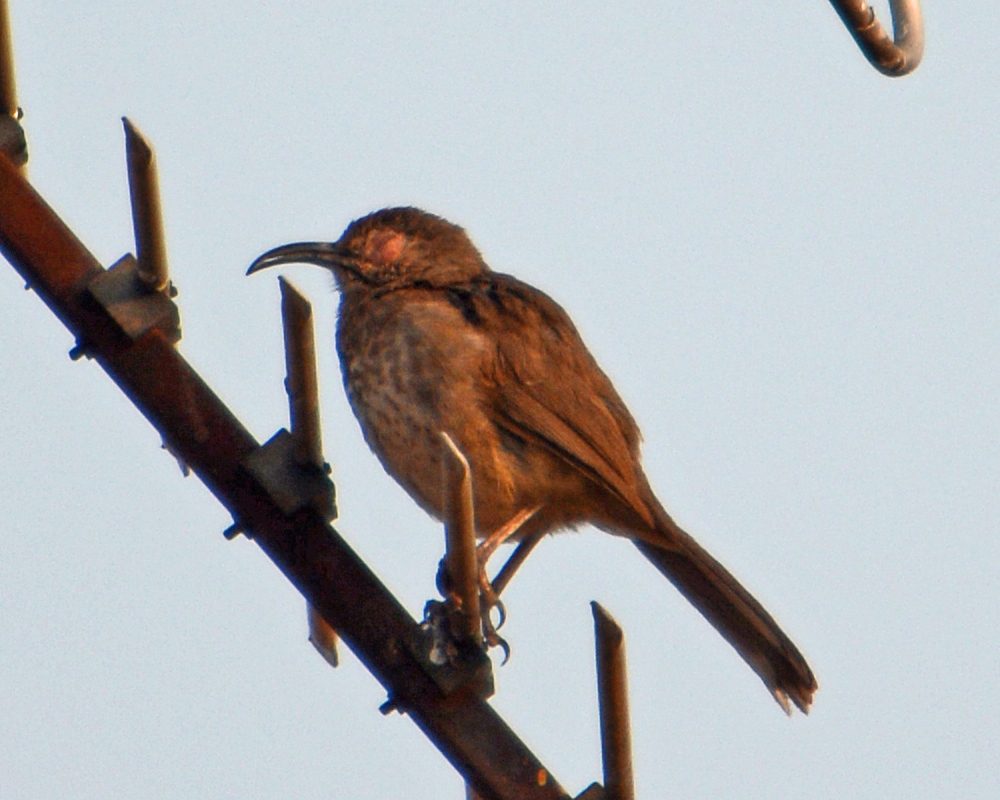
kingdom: Animalia
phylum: Chordata
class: Aves
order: Passeriformes
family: Mimidae
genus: Toxostoma
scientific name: Toxostoma curvirostre
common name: Curve-billed thrasher
